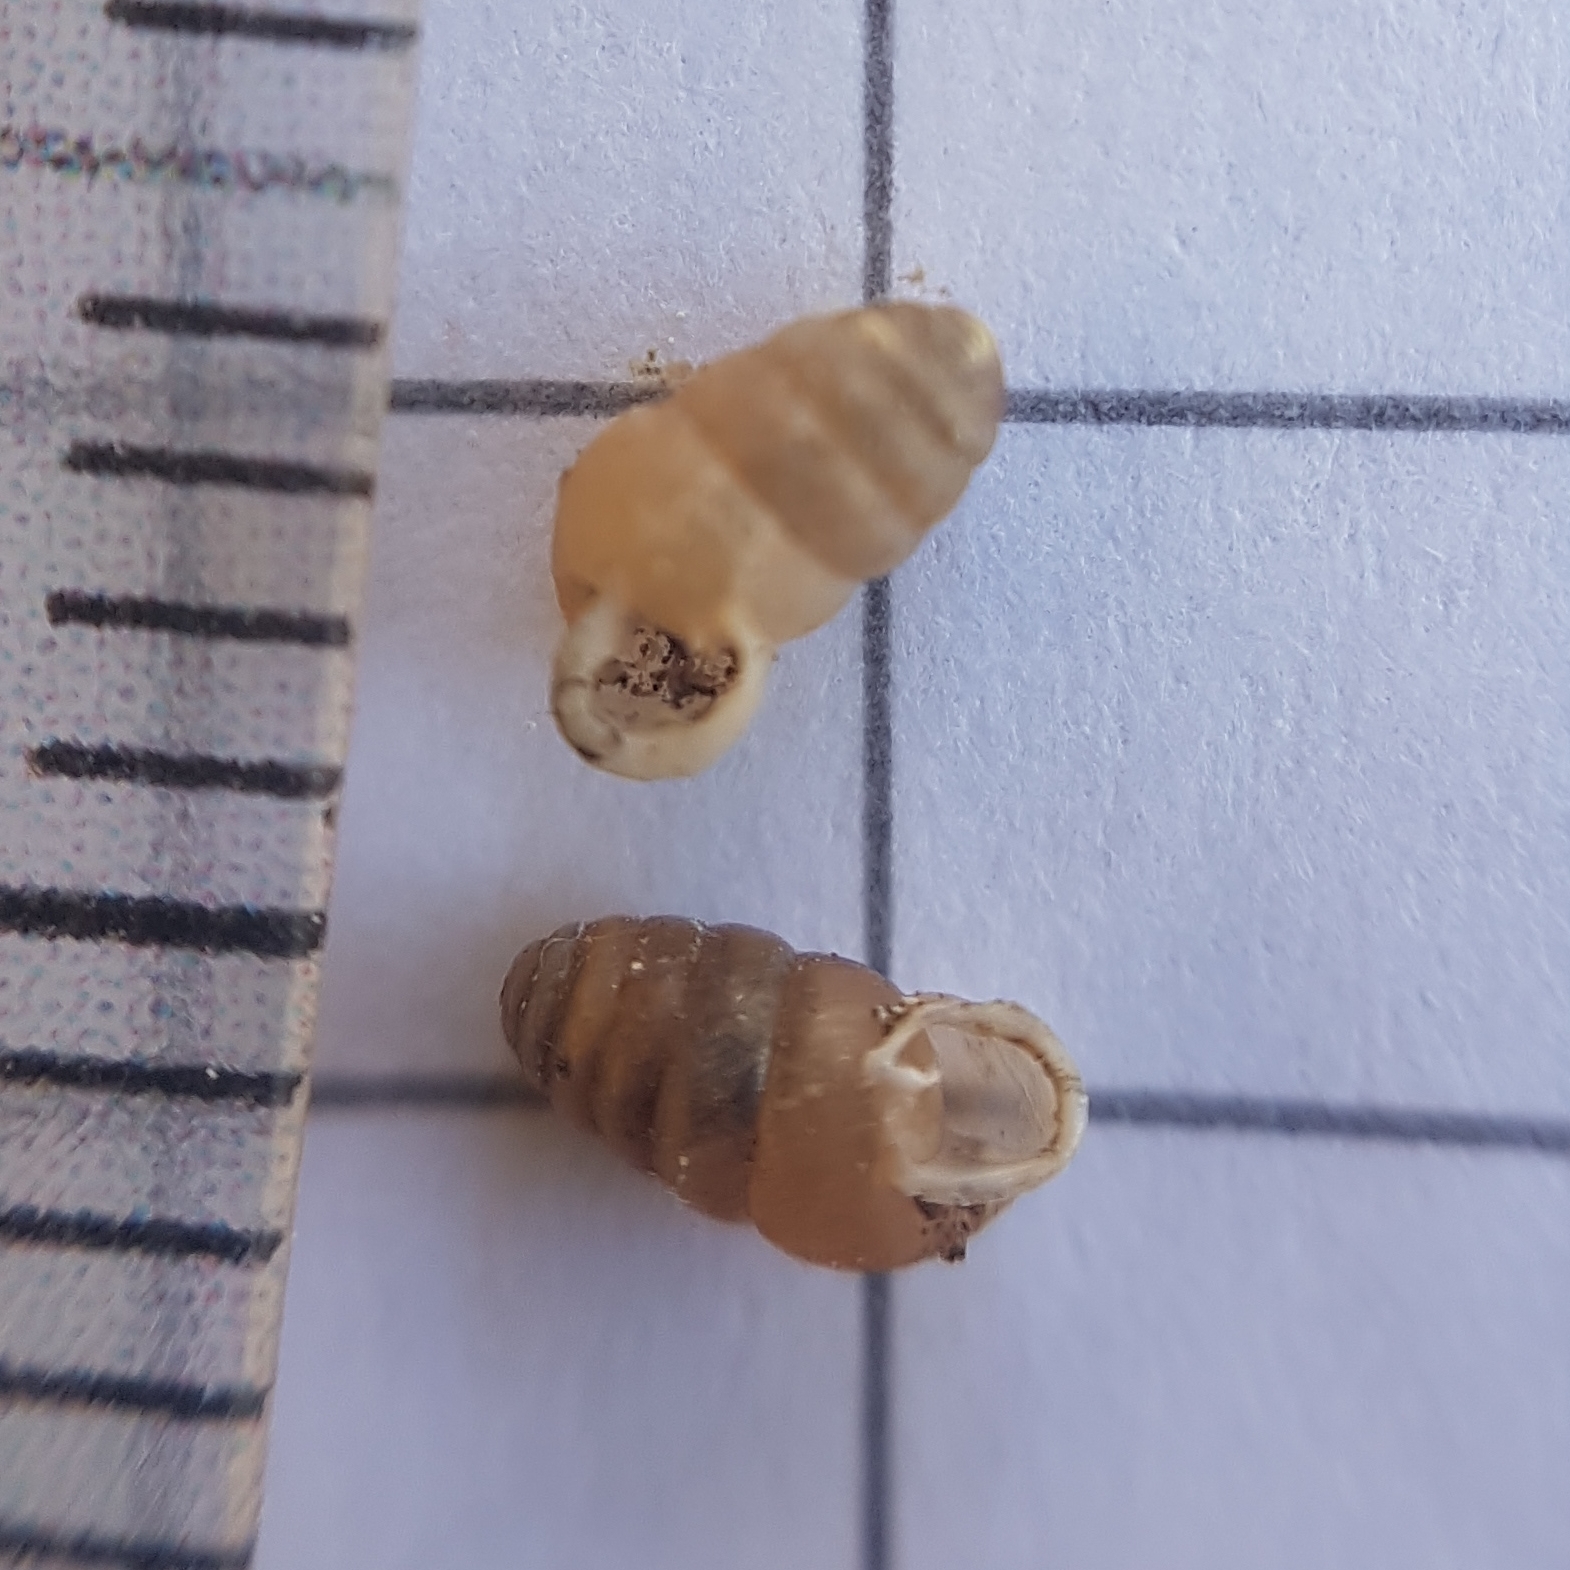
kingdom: Animalia
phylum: Mollusca
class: Gastropoda
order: Stylommatophora
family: Lauriidae
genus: Lauria
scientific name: Lauria cylindracea
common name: Common chrysalis snail
